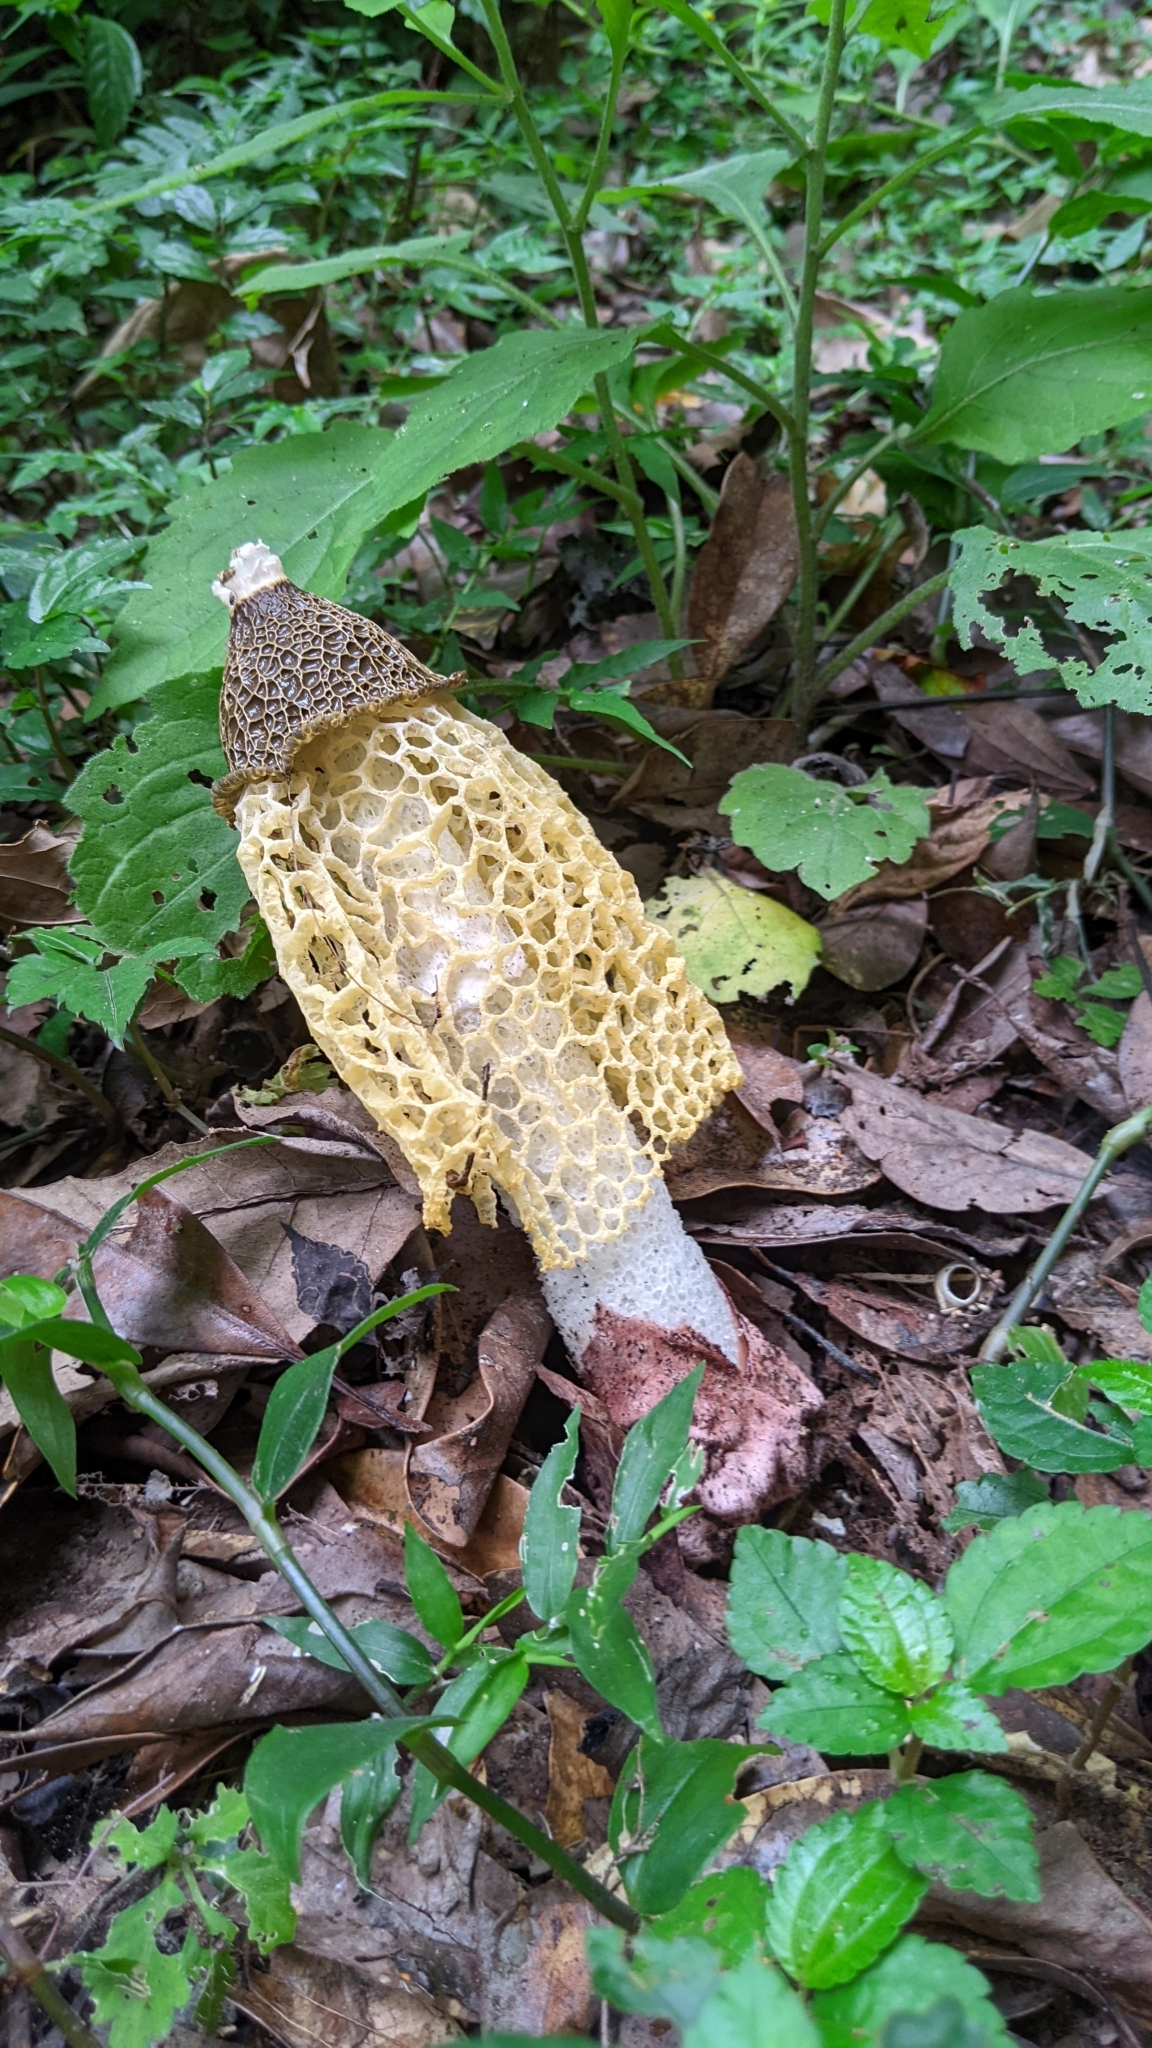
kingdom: Fungi
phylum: Basidiomycota
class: Agaricomycetes
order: Phallales
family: Phallaceae
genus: Phallus
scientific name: Phallus luteus
